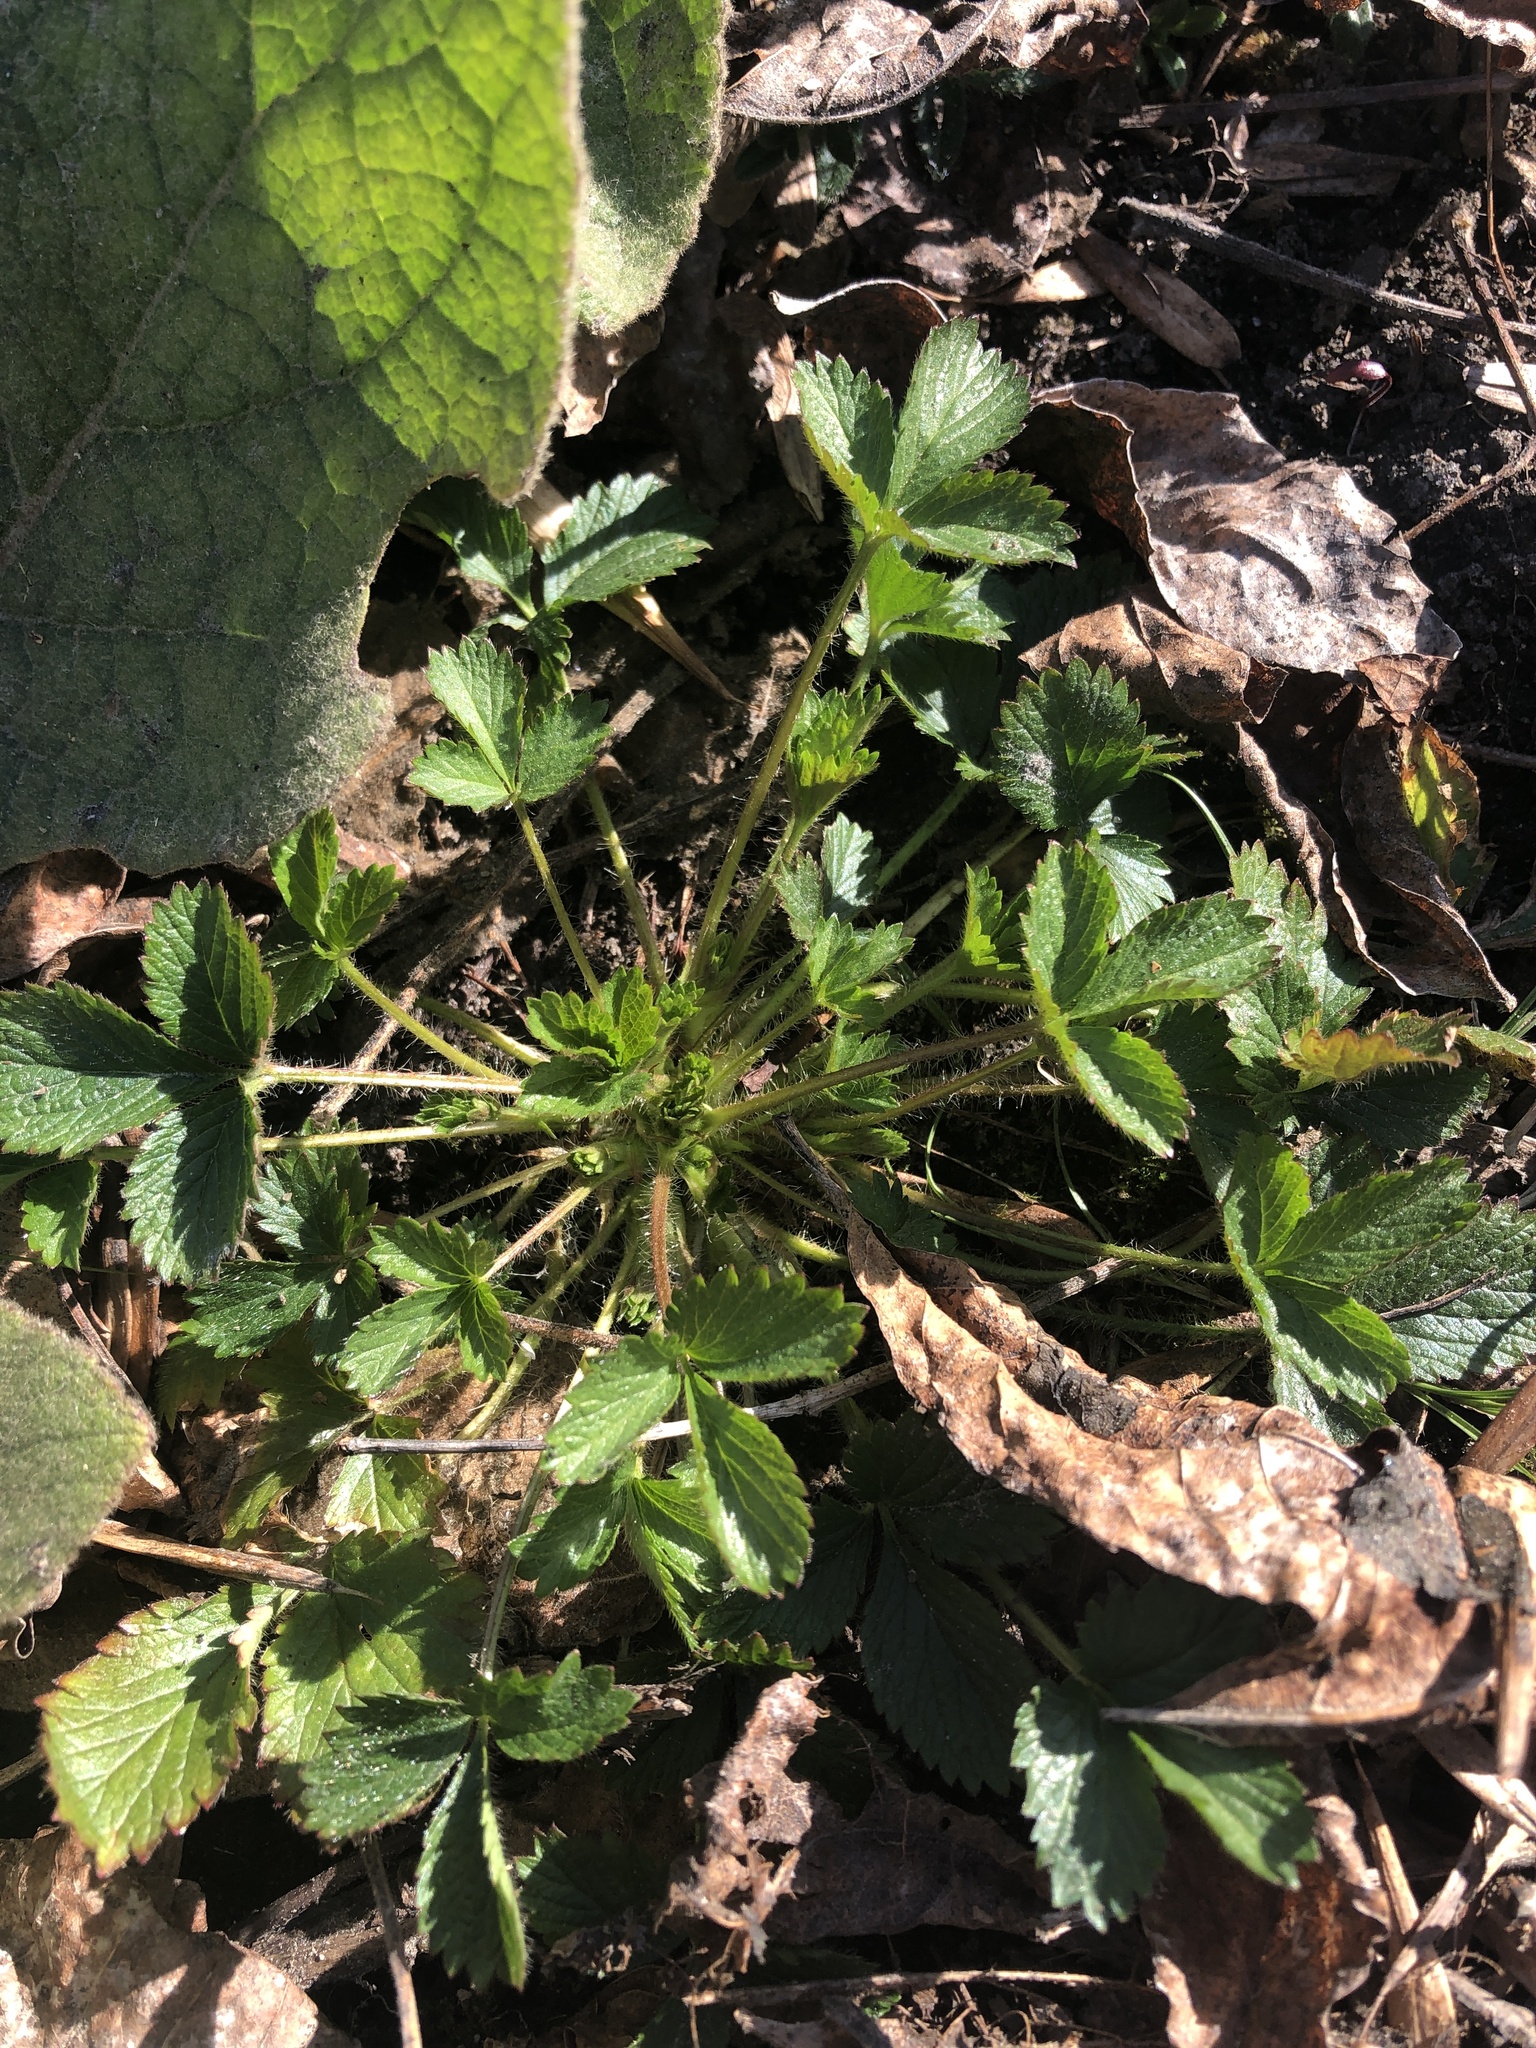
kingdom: Plantae
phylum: Tracheophyta
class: Magnoliopsida
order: Rosales
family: Rosaceae
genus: Potentilla
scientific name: Potentilla norvegica
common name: Ternate-leaved cinquefoil
